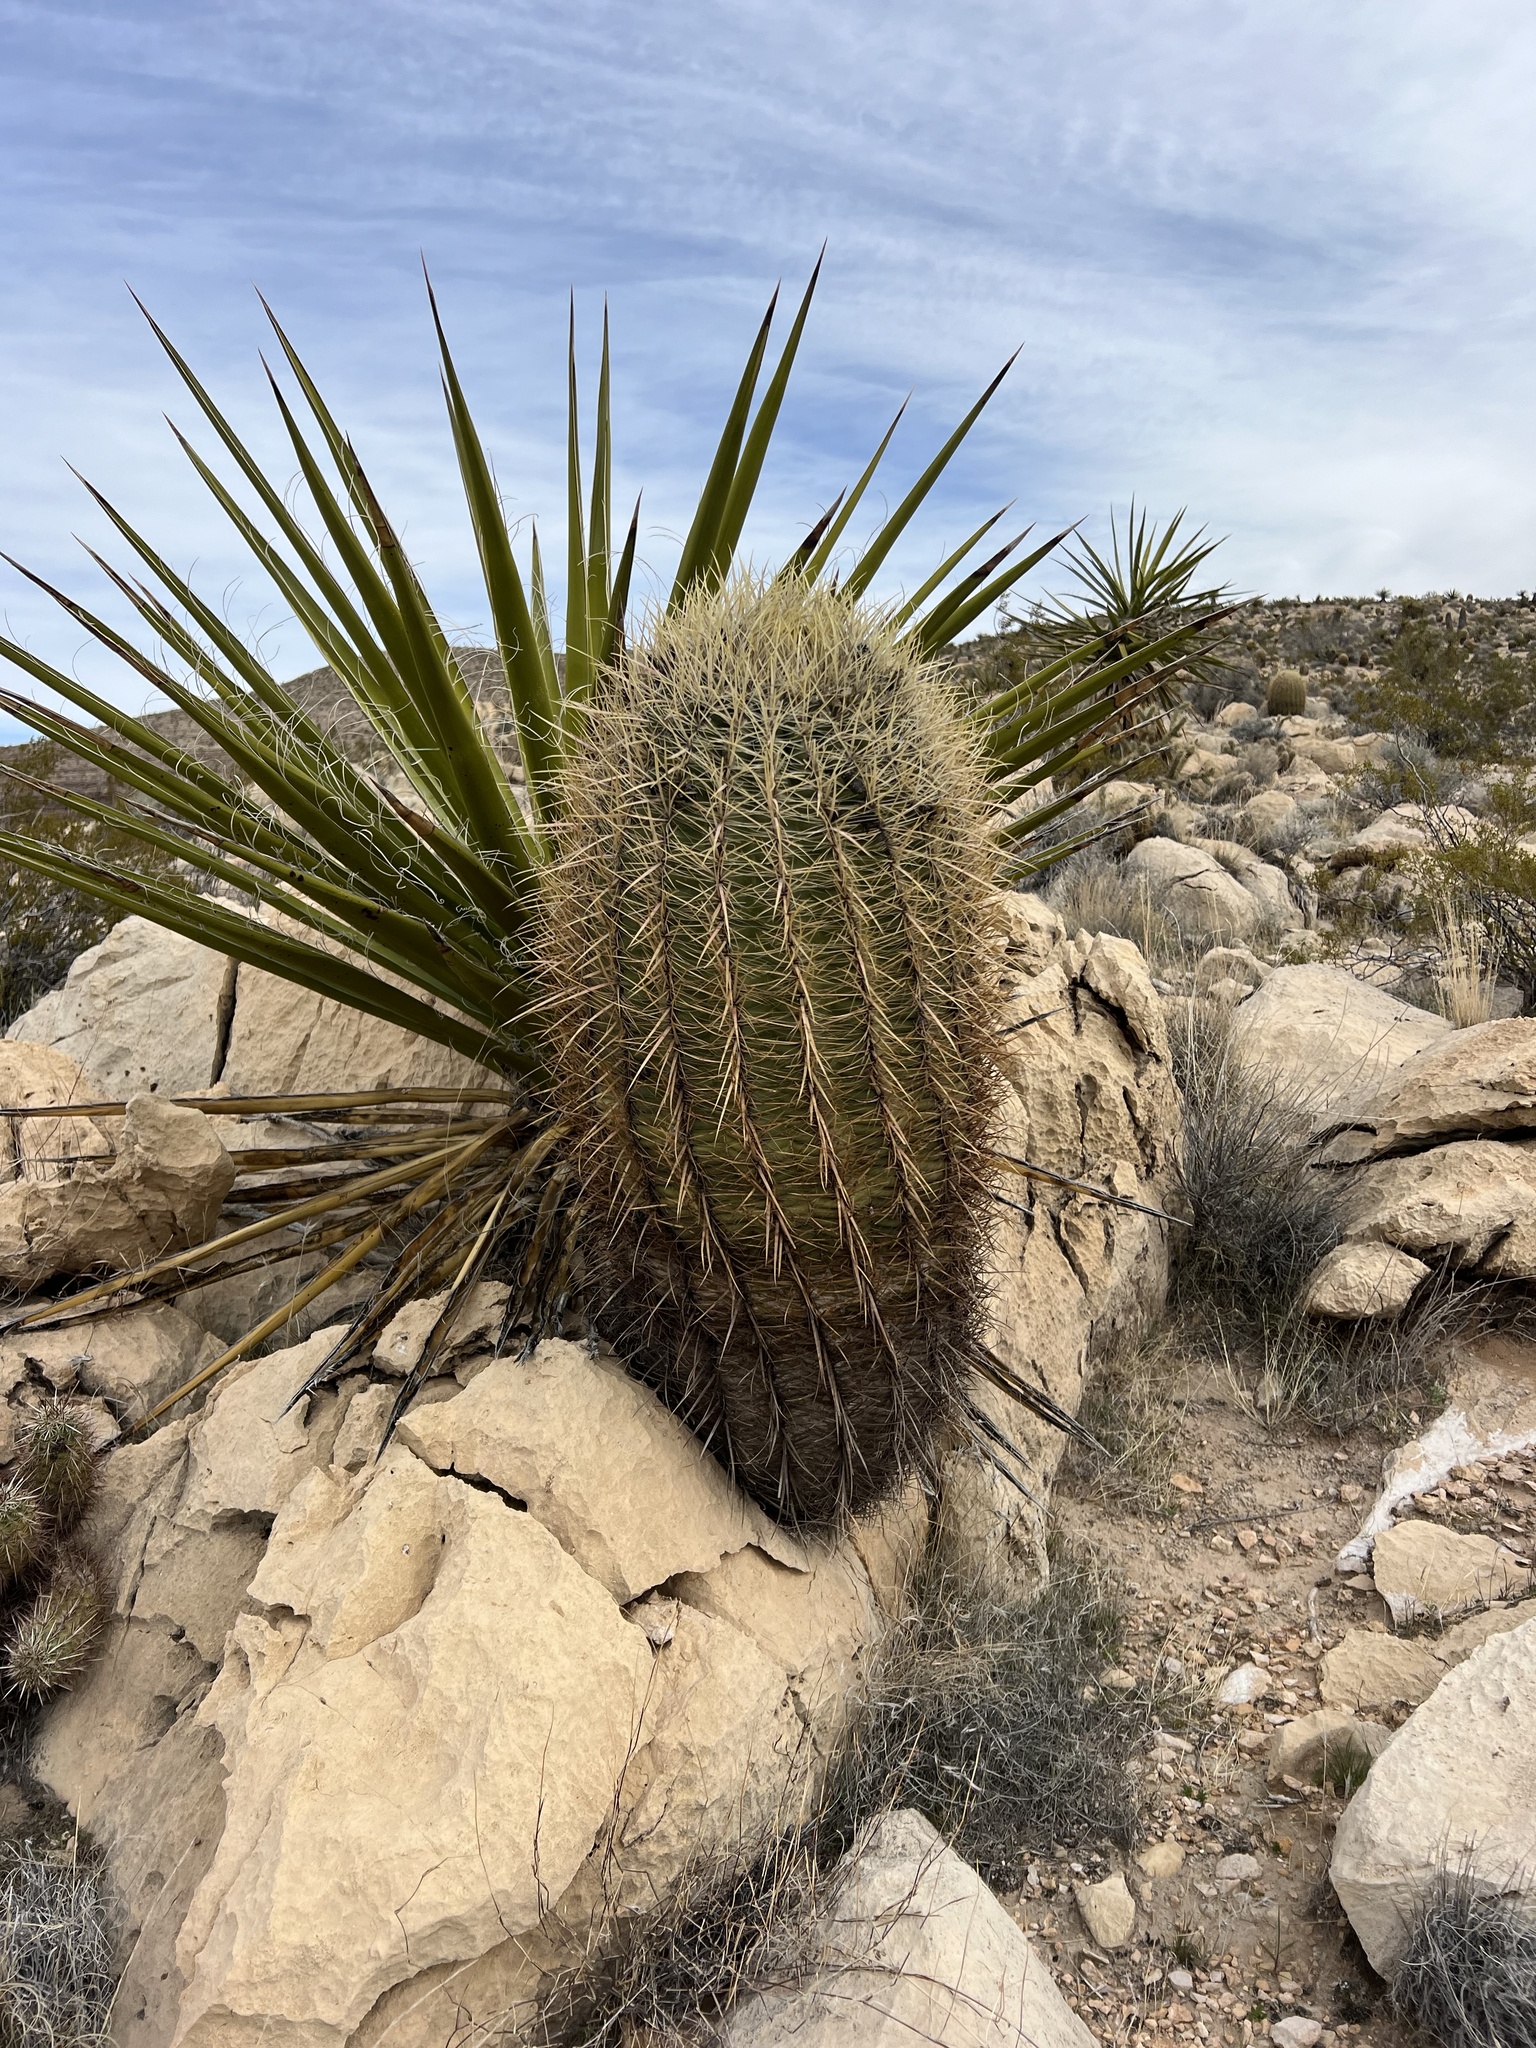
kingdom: Plantae
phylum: Tracheophyta
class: Magnoliopsida
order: Caryophyllales
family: Cactaceae
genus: Ferocactus
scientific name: Ferocactus cylindraceus
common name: California barrel cactus
